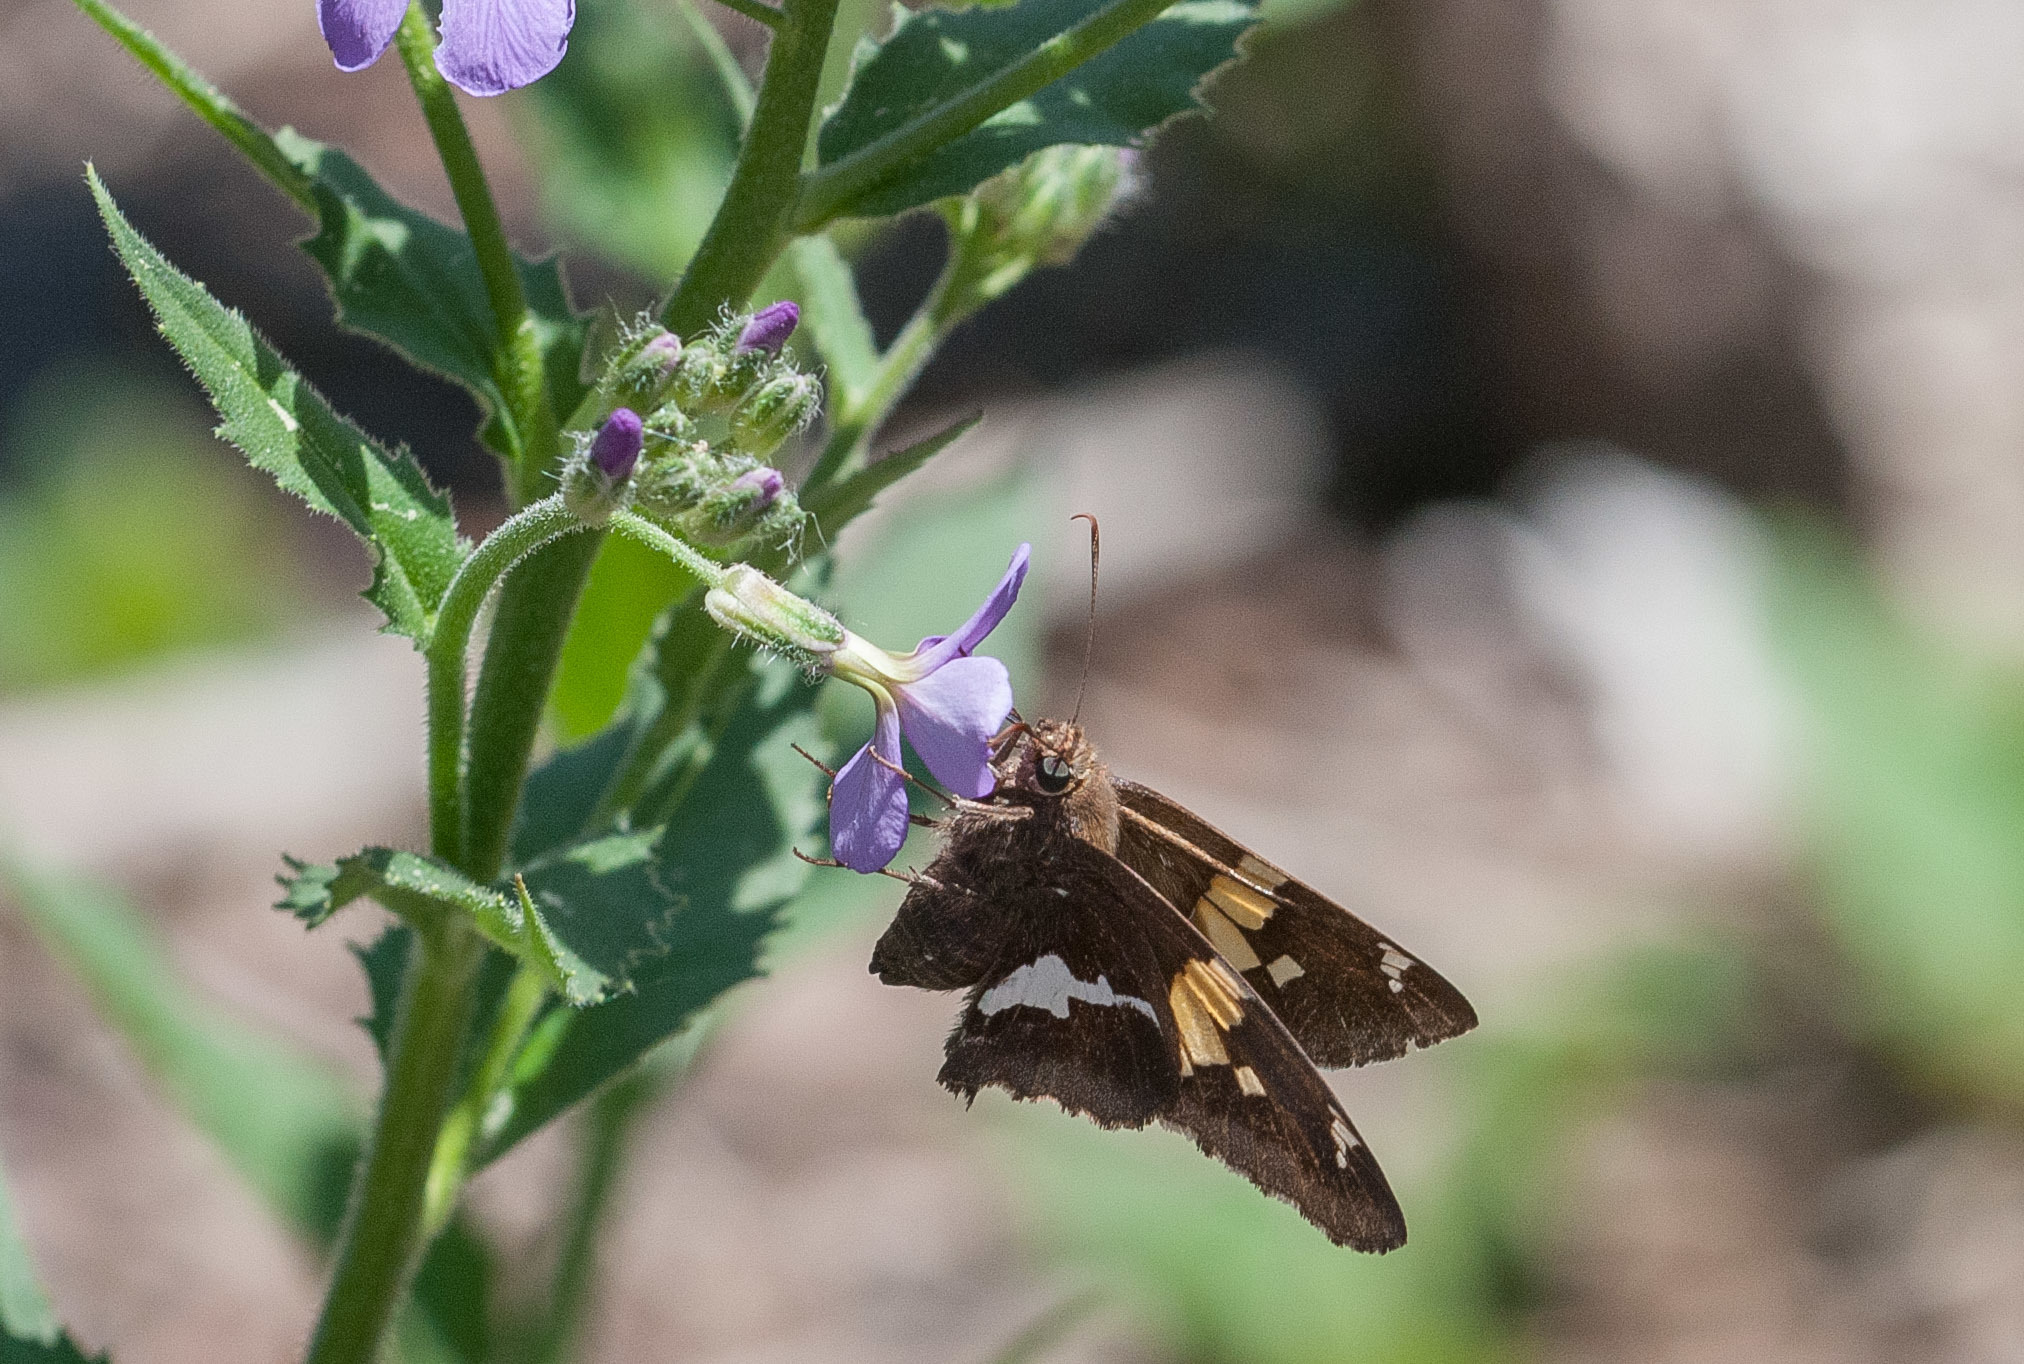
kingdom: Animalia
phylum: Arthropoda
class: Insecta
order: Lepidoptera
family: Hesperiidae
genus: Epargyreus
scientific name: Epargyreus clarus
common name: Silver-spotted skipper
